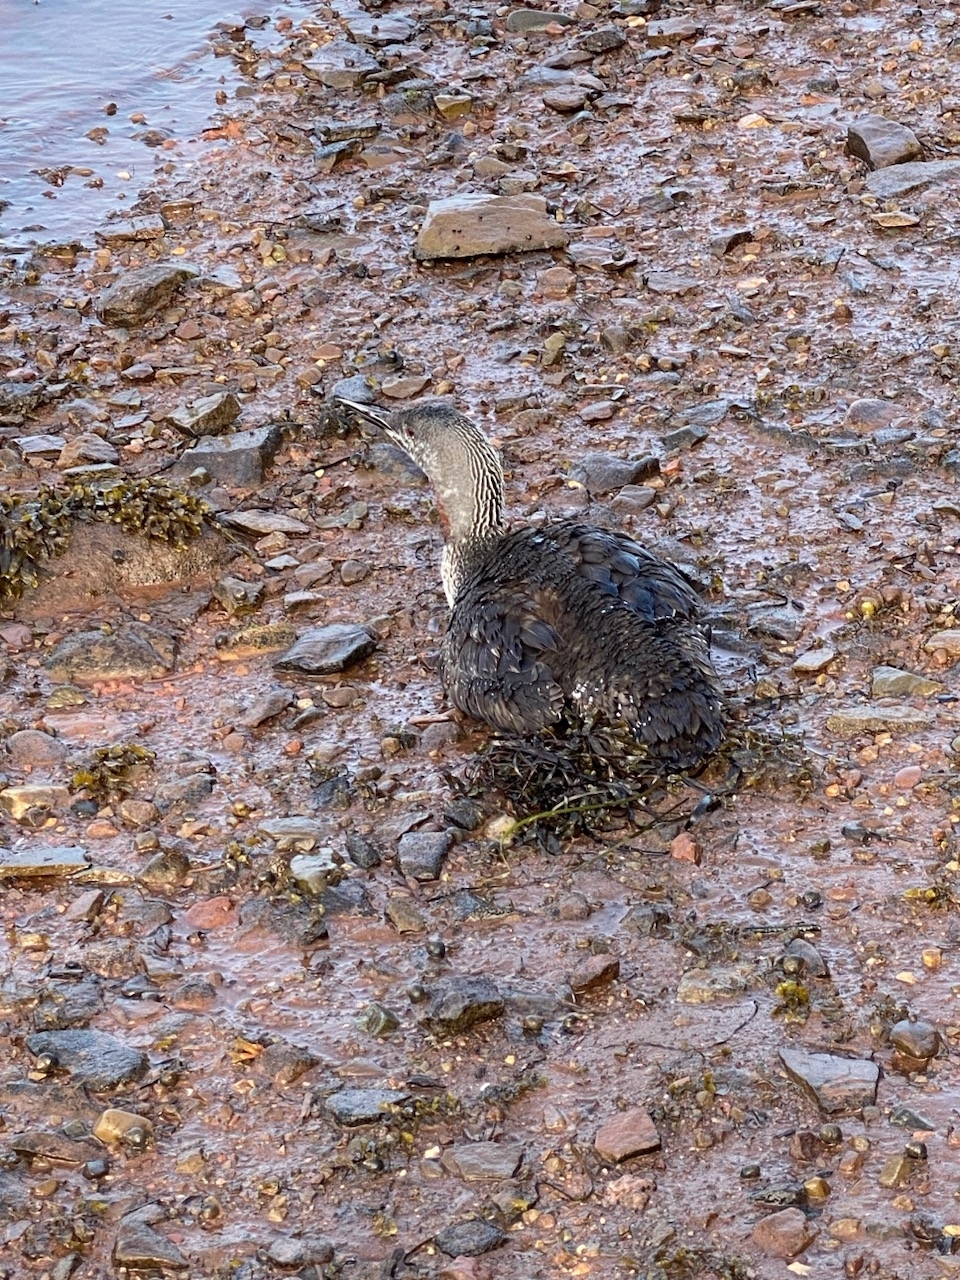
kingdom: Animalia
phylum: Chordata
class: Aves
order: Gaviiformes
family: Gaviidae
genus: Gavia
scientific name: Gavia stellata
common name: Red-throated loon
